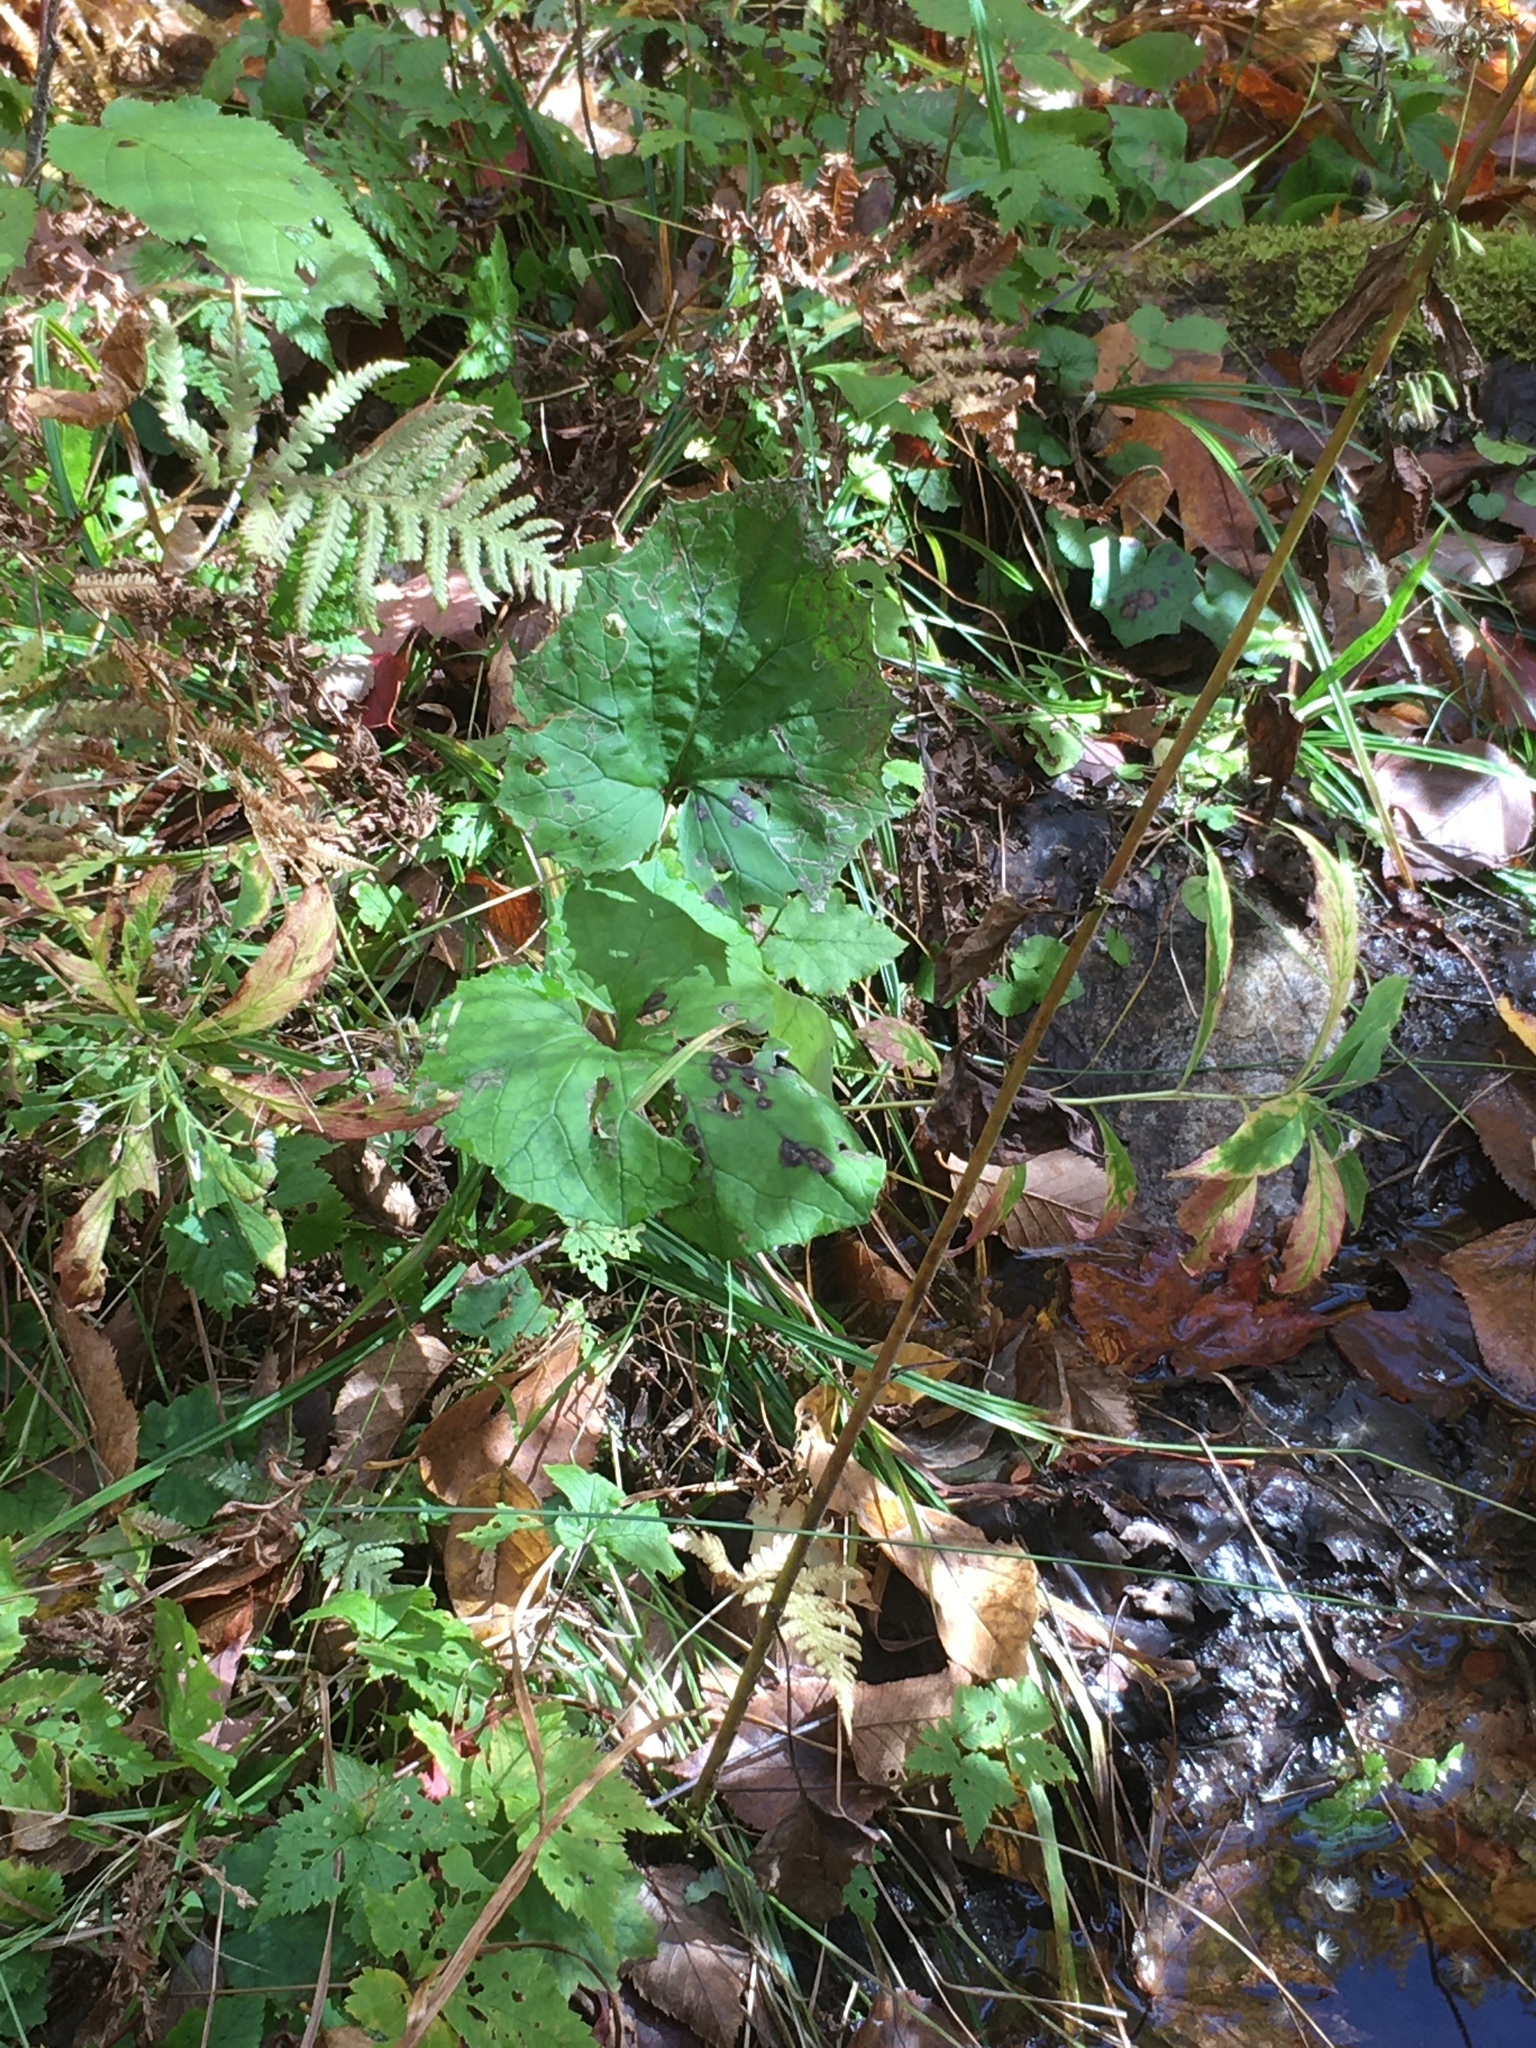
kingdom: Plantae
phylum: Tracheophyta
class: Magnoliopsida
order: Asterales
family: Asteraceae
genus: Tussilago
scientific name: Tussilago farfara
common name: Coltsfoot
